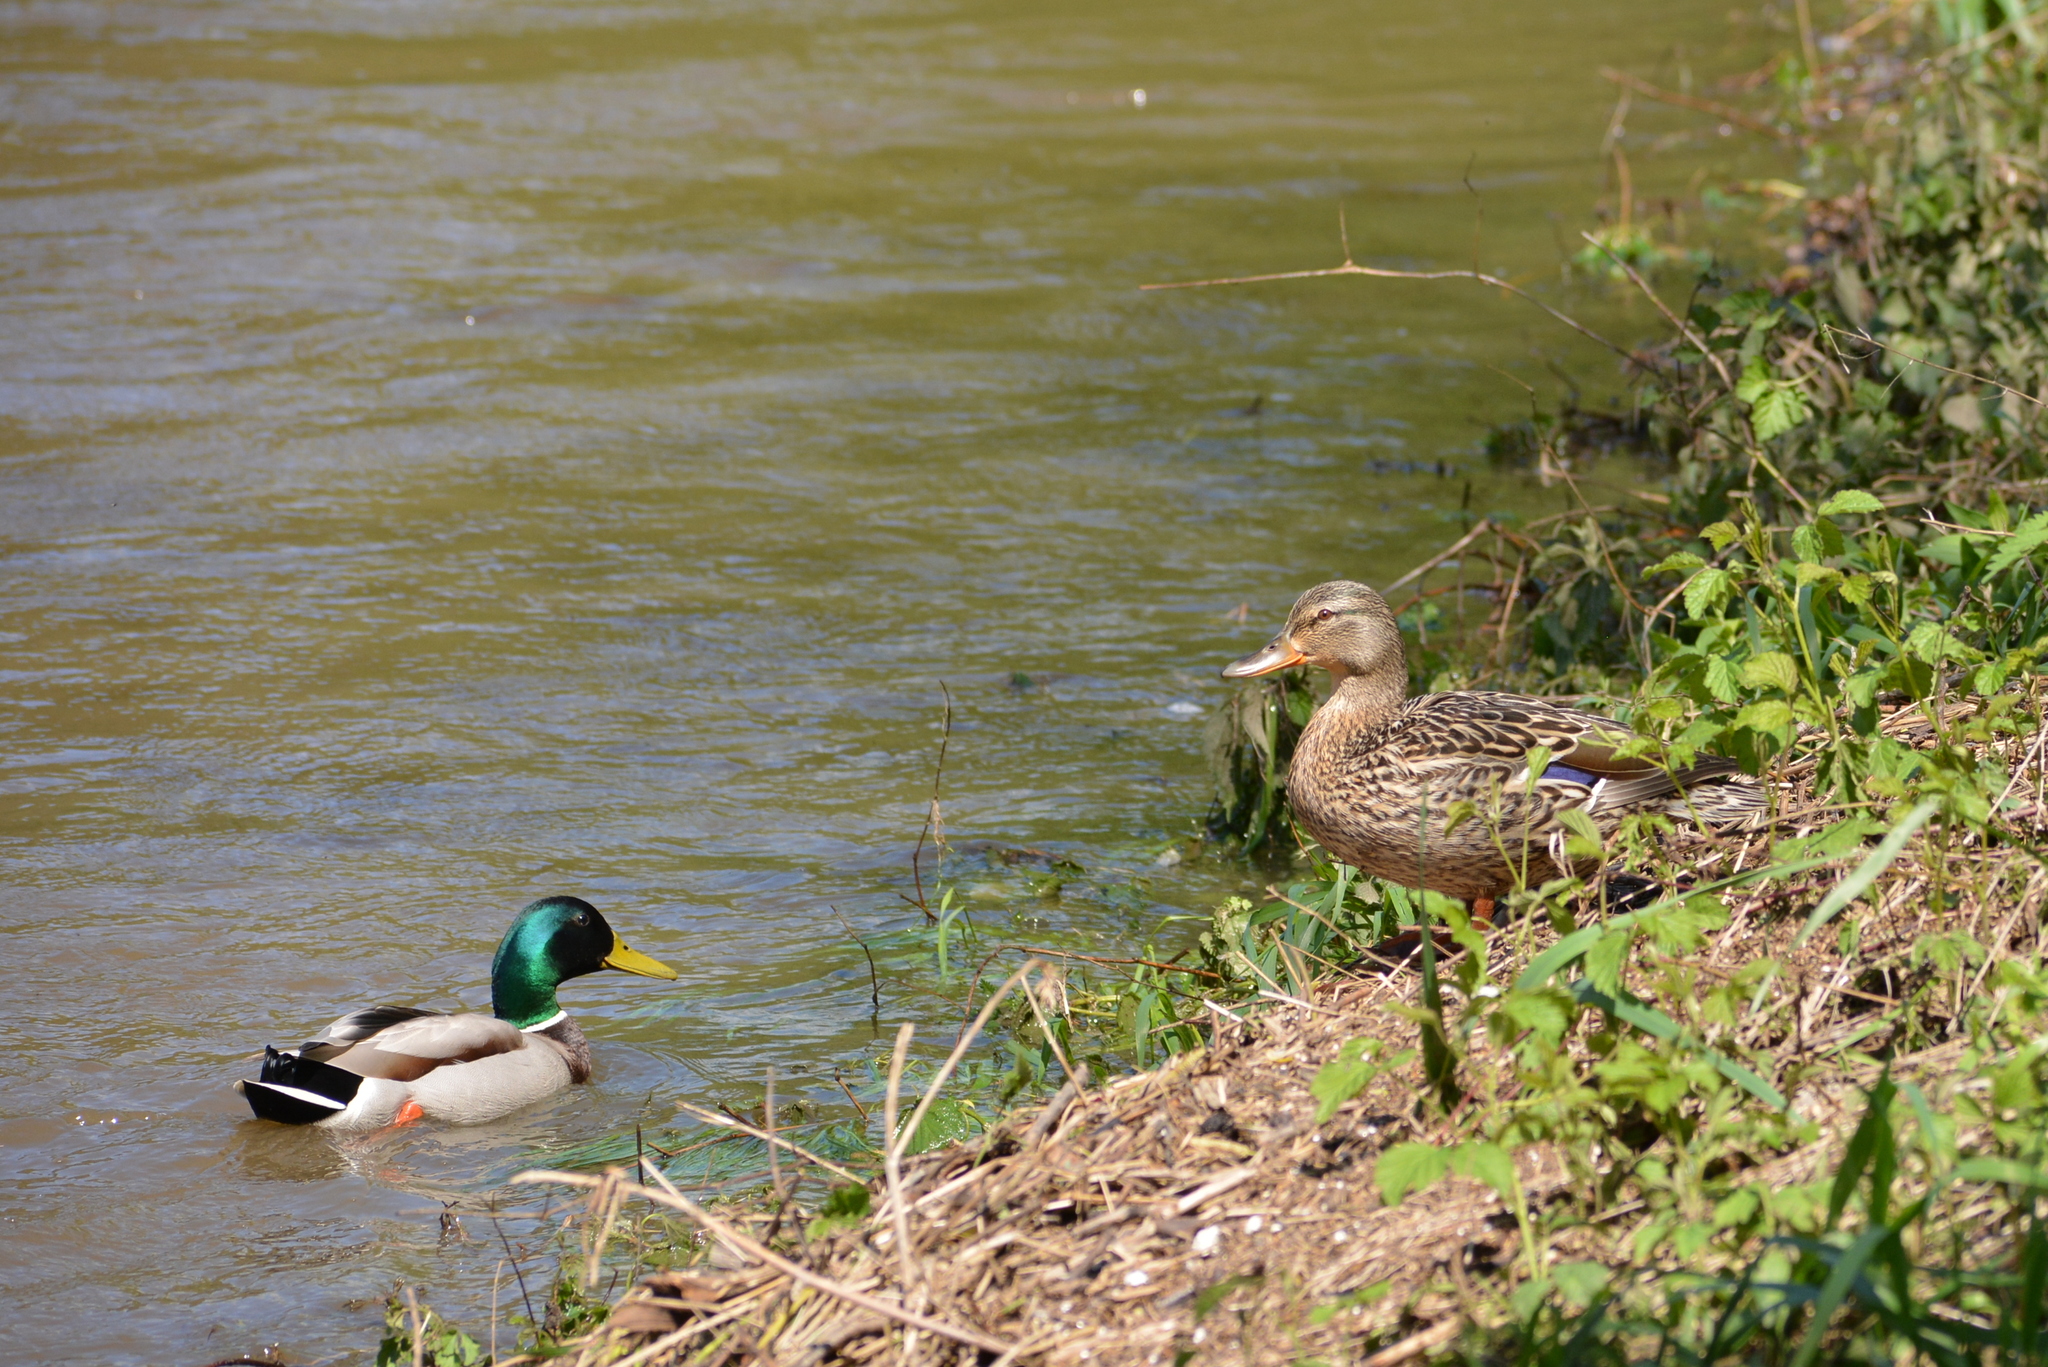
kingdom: Animalia
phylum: Chordata
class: Aves
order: Anseriformes
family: Anatidae
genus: Anas
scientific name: Anas platyrhynchos
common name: Mallard
